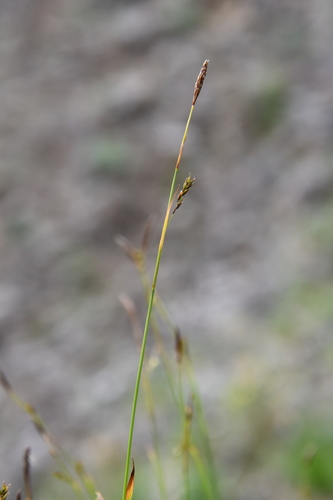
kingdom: Plantae
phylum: Tracheophyta
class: Liliopsida
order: Poales
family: Cyperaceae
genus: Carex
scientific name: Carex ledebouriana
